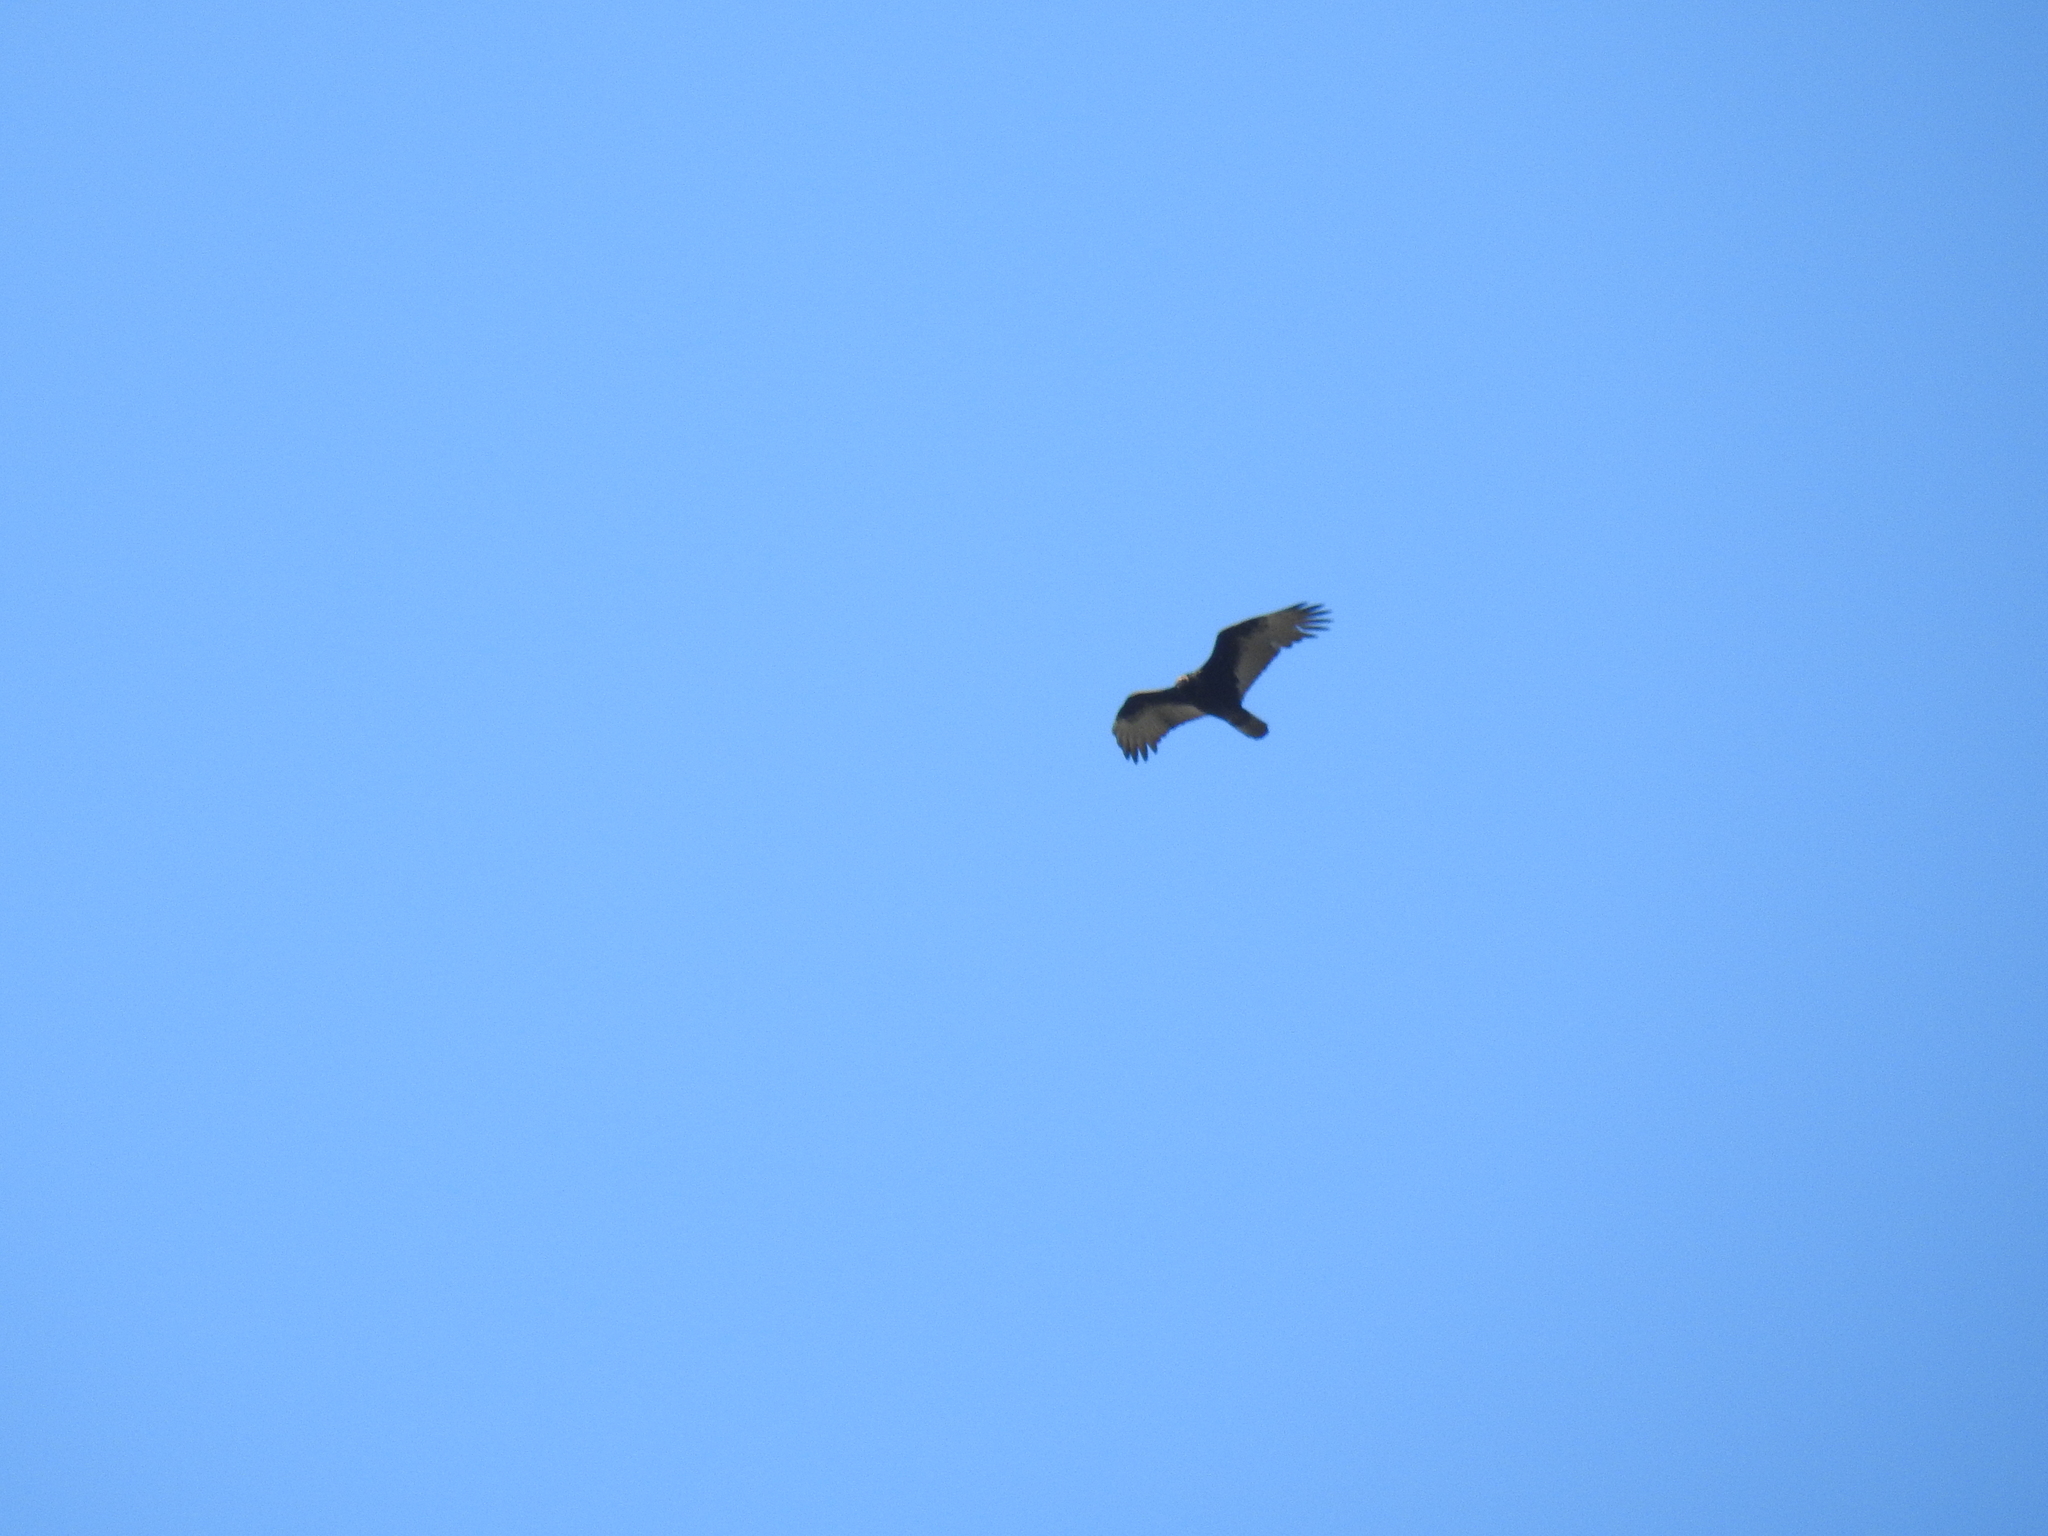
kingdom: Animalia
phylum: Chordata
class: Aves
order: Accipitriformes
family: Cathartidae
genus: Cathartes
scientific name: Cathartes aura
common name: Turkey vulture
